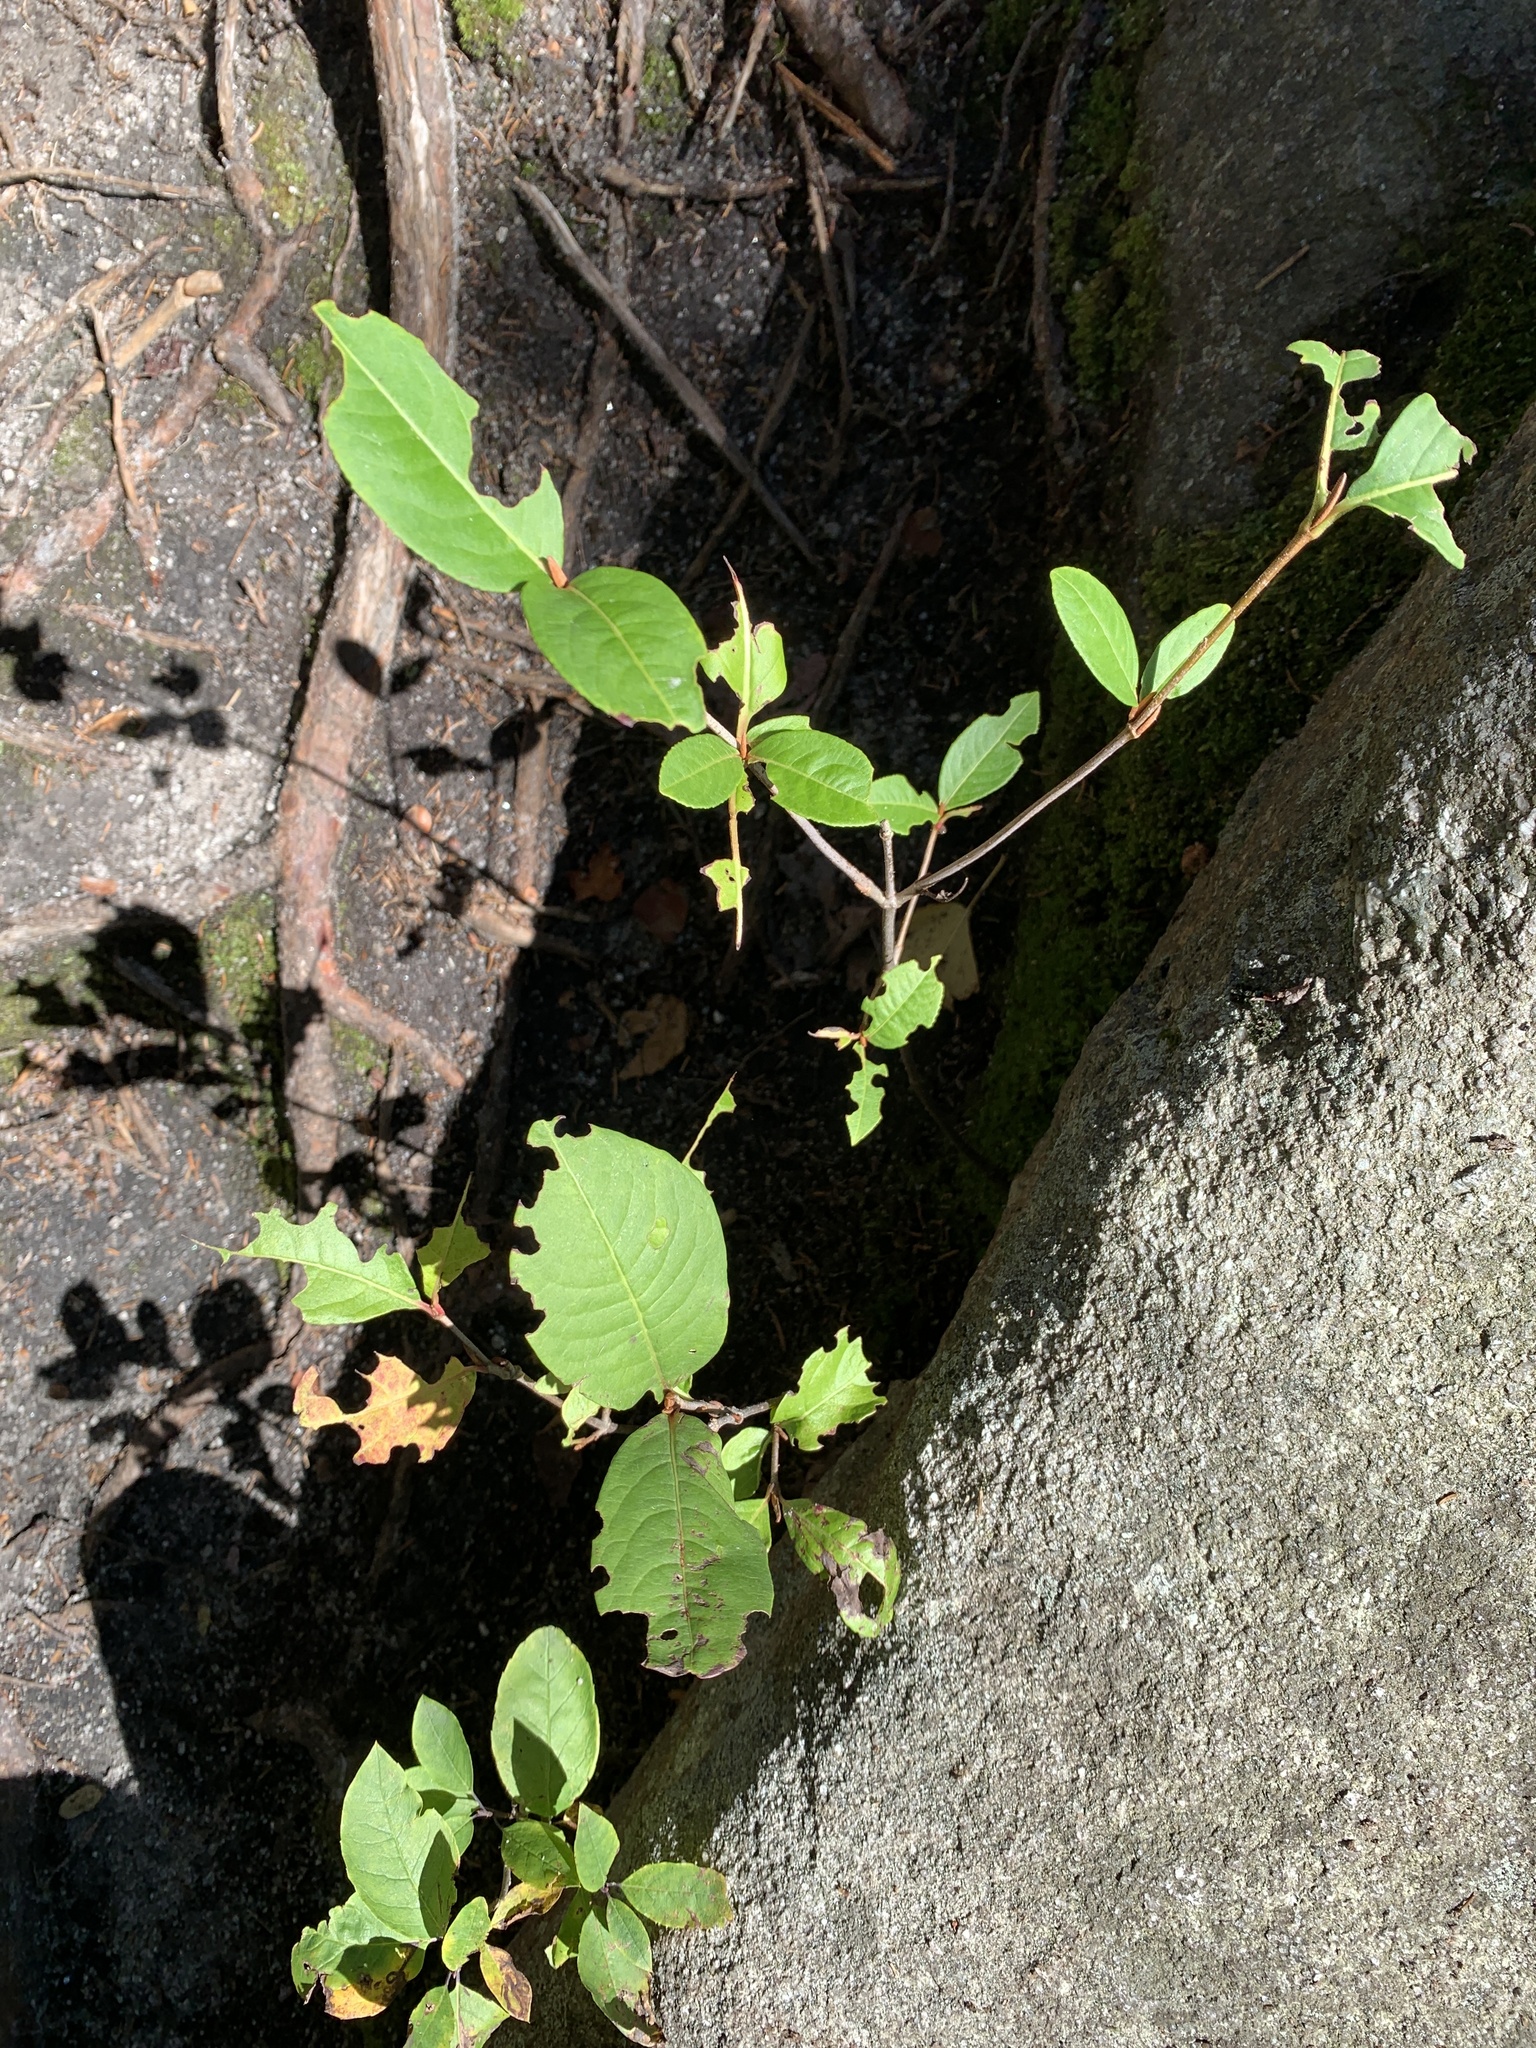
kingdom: Plantae
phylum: Tracheophyta
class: Magnoliopsida
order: Dipsacales
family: Viburnaceae
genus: Viburnum
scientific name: Viburnum cassinoides
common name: Swamp haw
